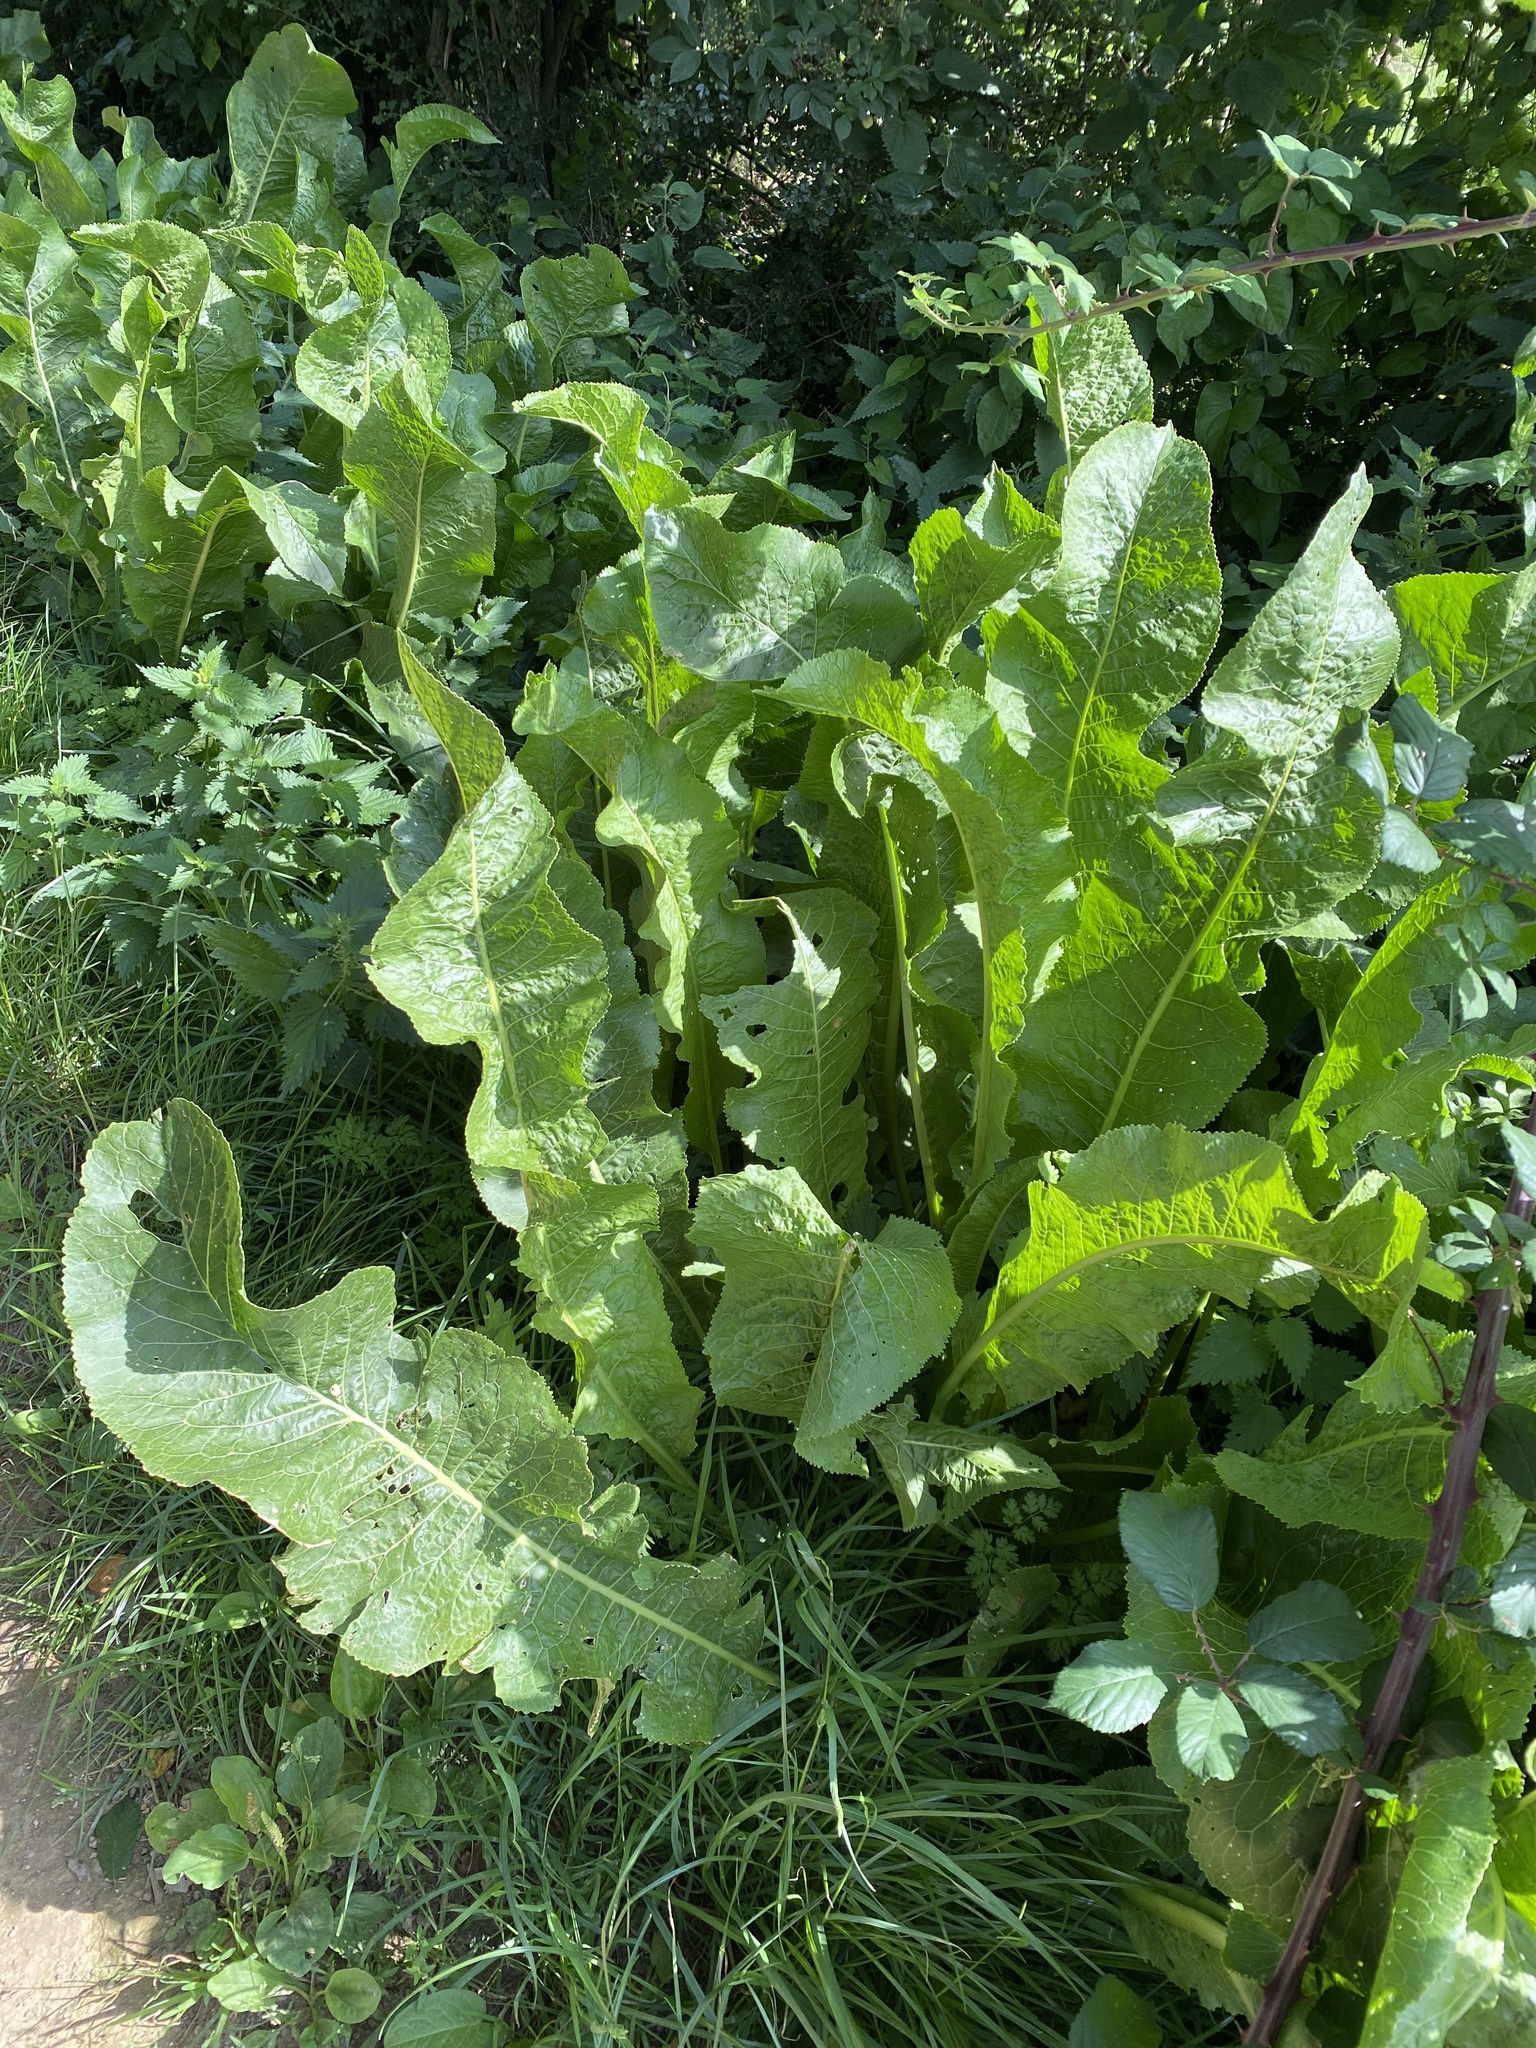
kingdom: Plantae
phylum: Tracheophyta
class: Magnoliopsida
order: Brassicales
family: Brassicaceae
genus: Armoracia
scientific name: Armoracia rusticana
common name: Horseradish
